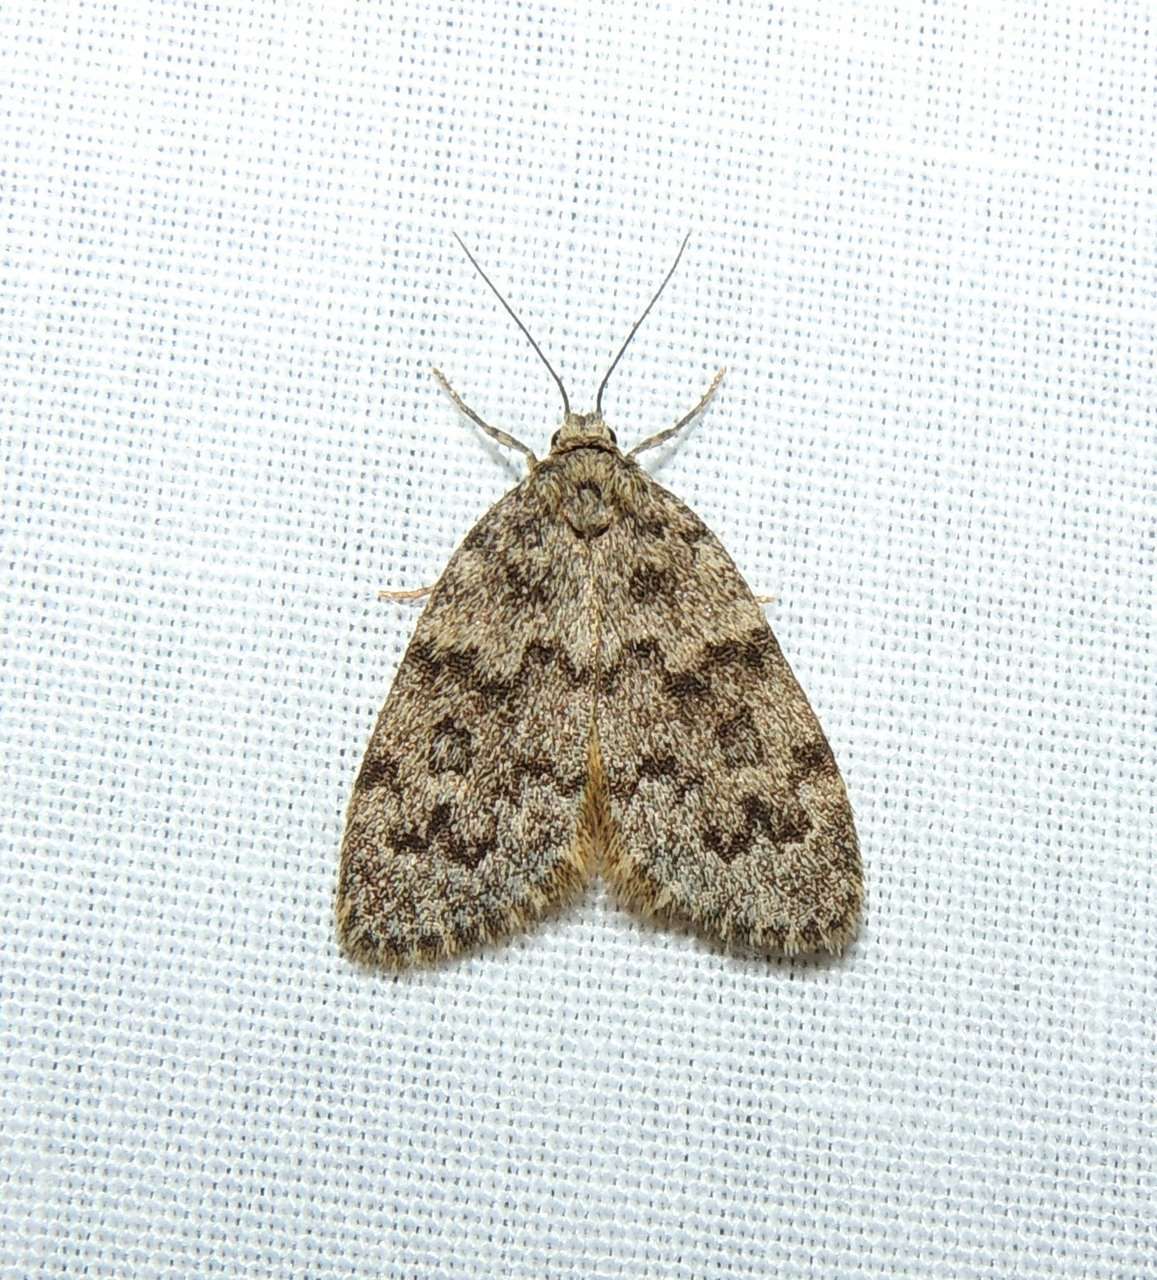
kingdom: Animalia
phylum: Arthropoda
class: Insecta
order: Lepidoptera
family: Erebidae
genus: Halone
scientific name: Halone consolatrix
